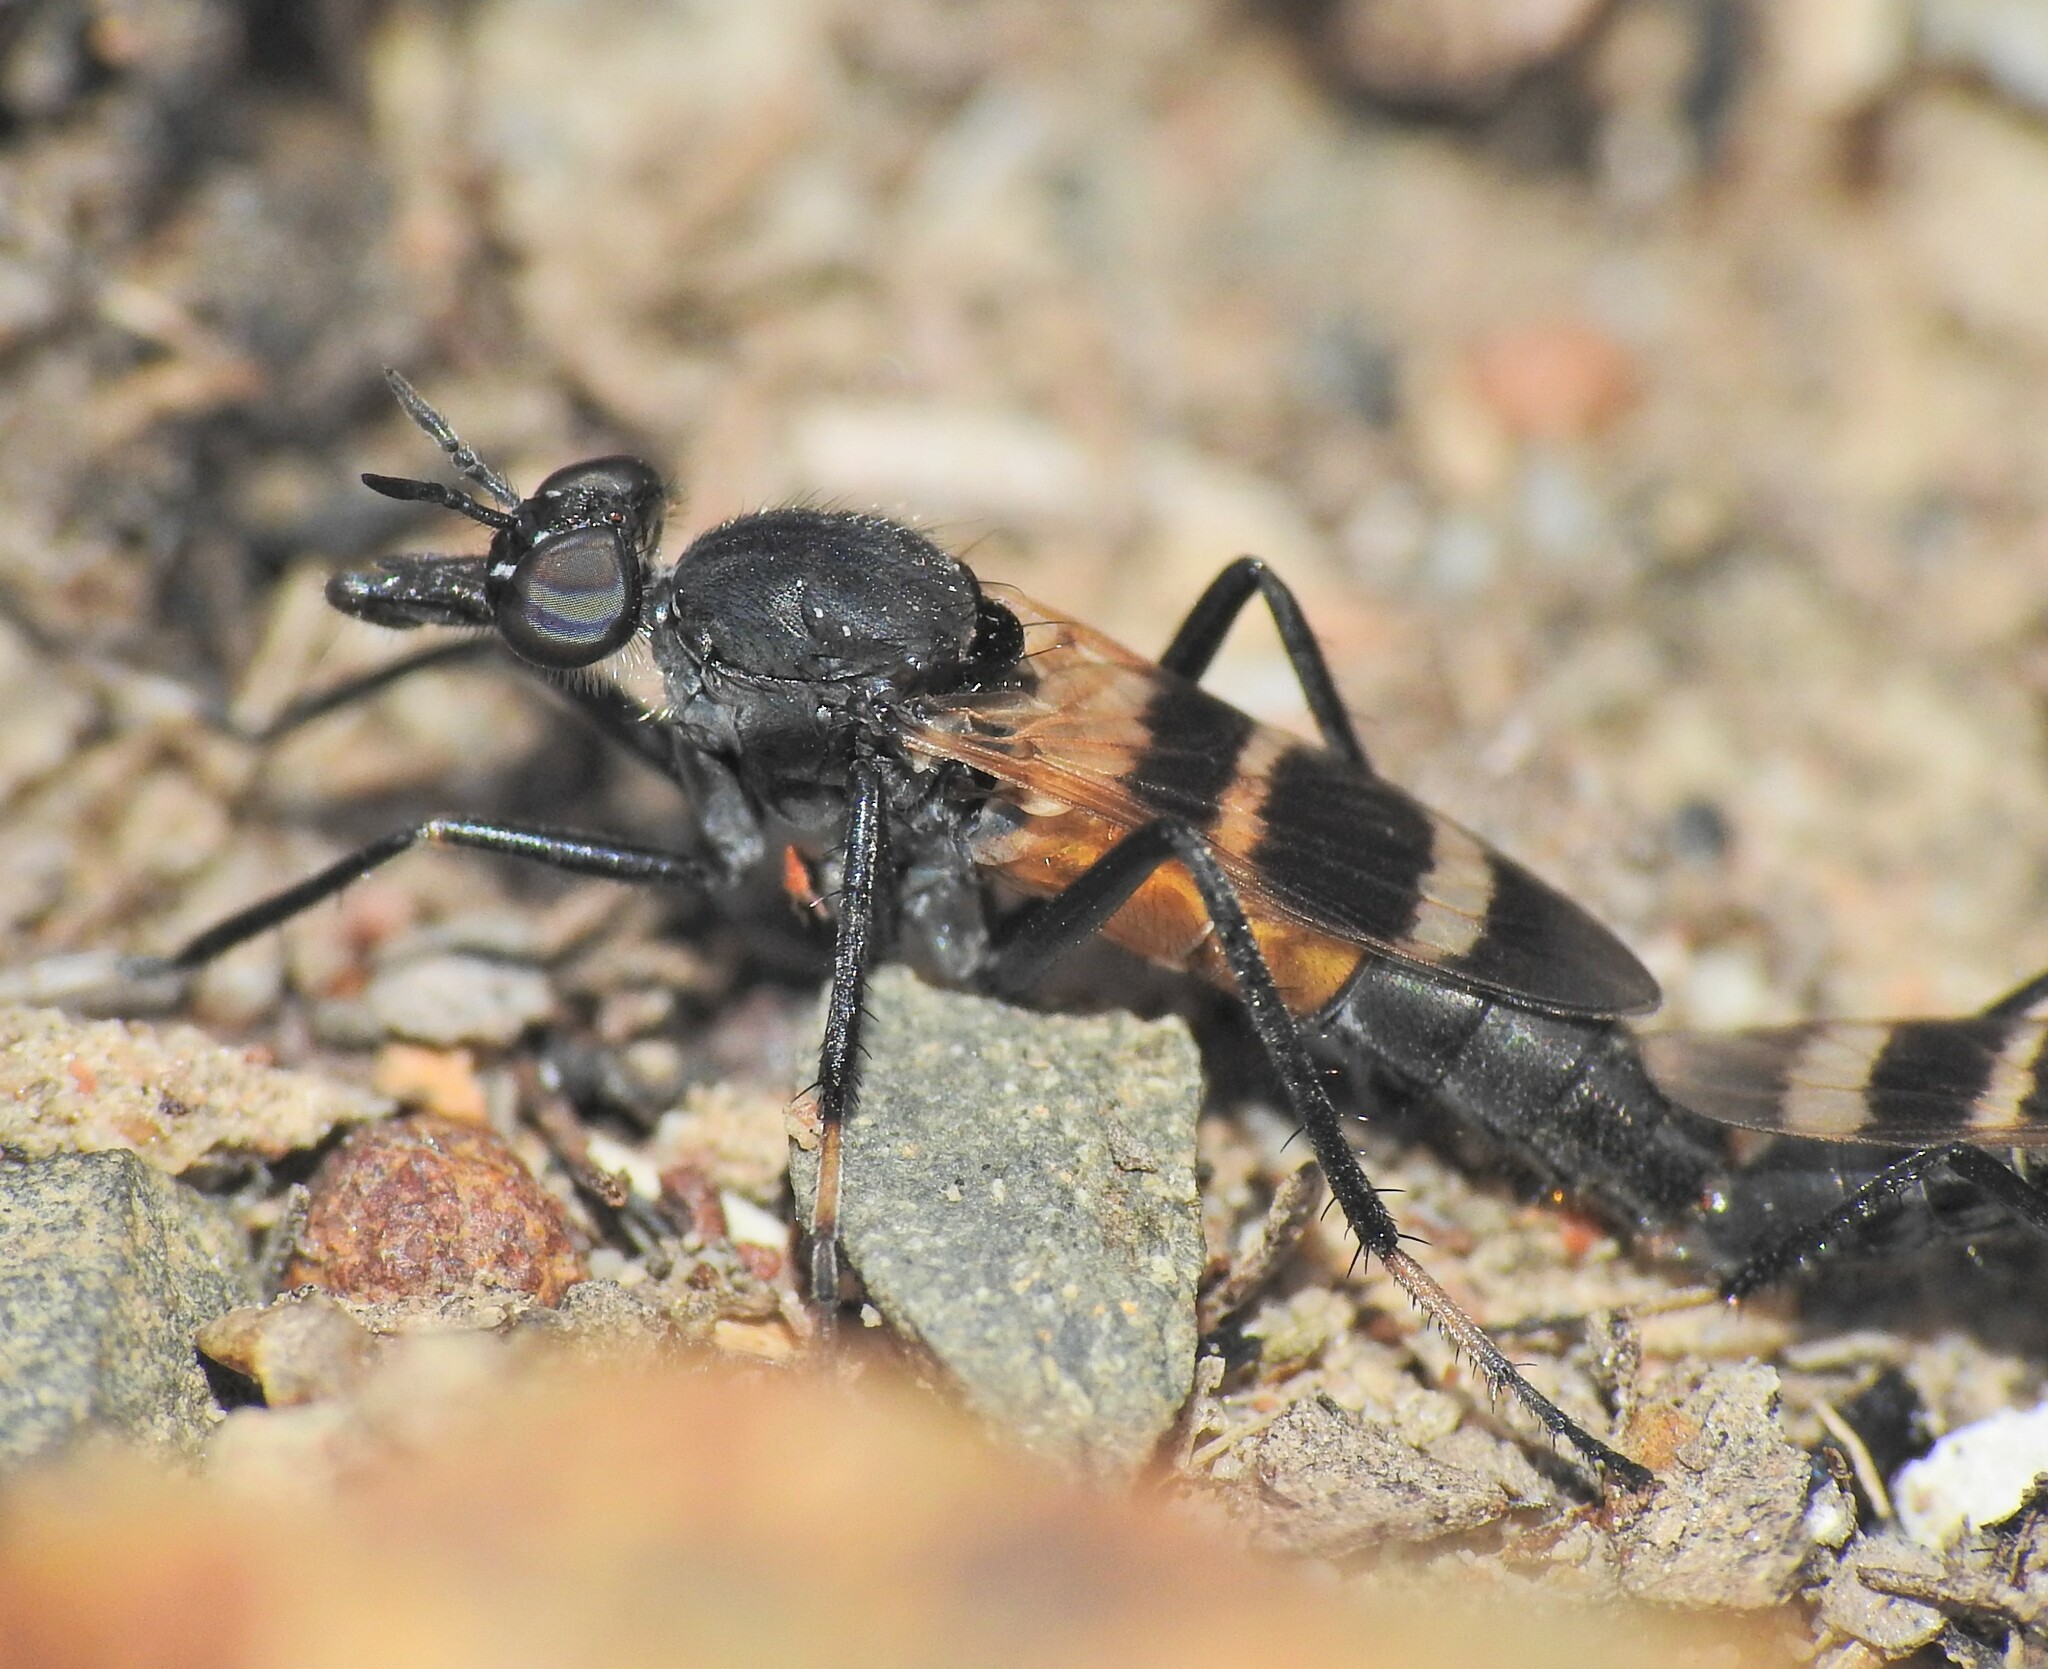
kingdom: Animalia
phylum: Arthropoda
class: Insecta
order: Diptera
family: Therevidae
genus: Acupalpa
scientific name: Acupalpa divisa
